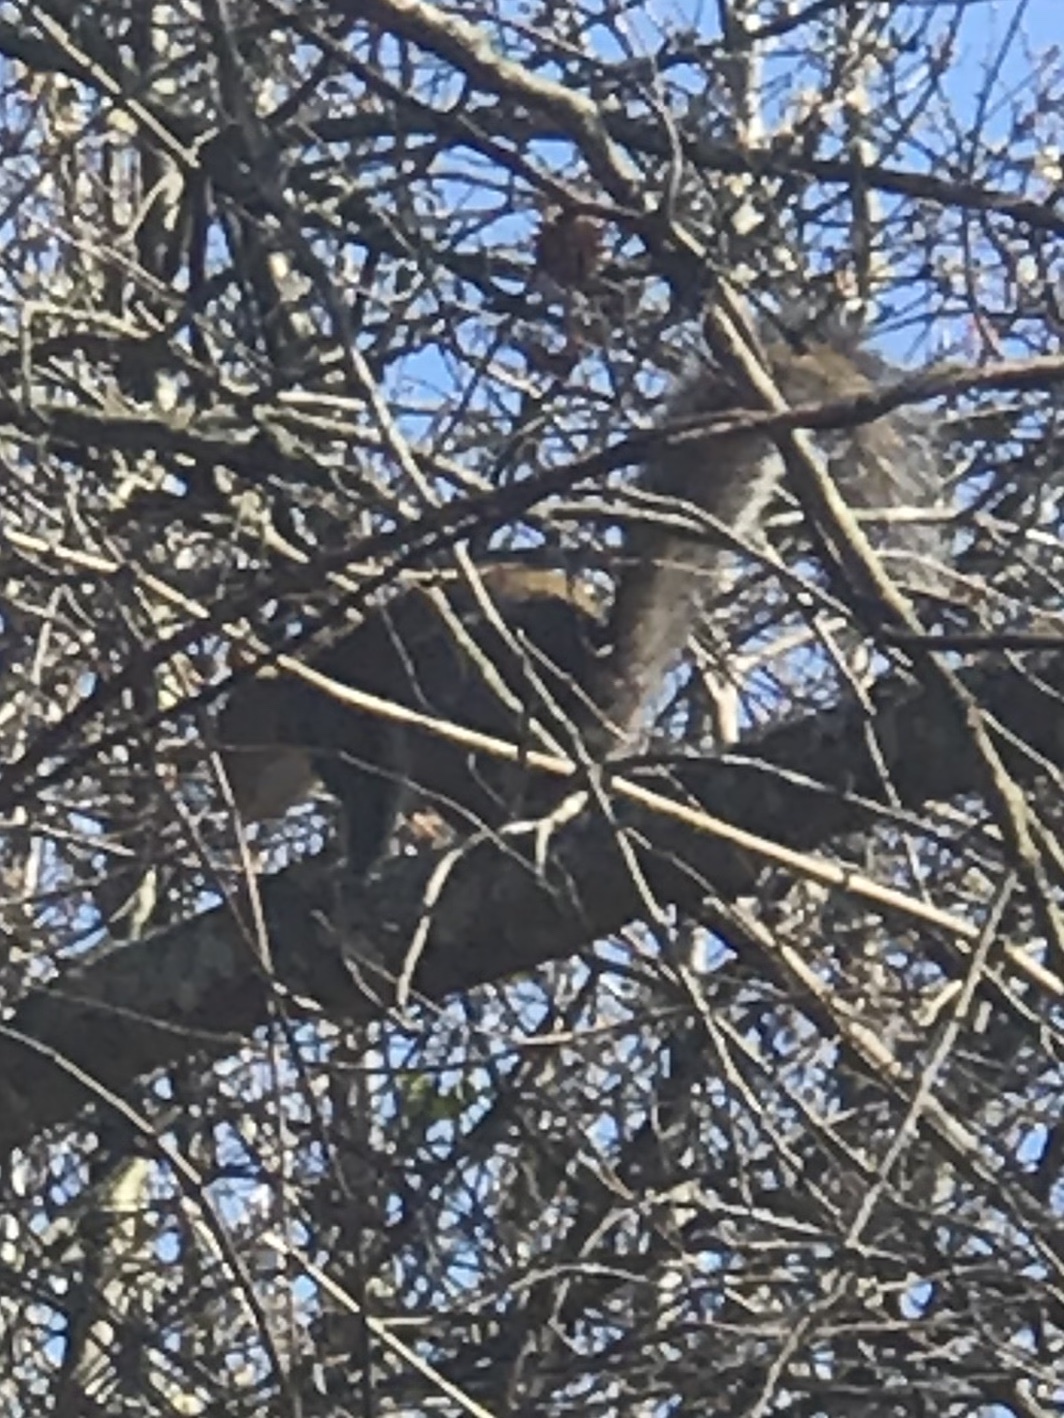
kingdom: Animalia
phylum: Chordata
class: Mammalia
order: Rodentia
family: Sciuridae
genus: Sciurus
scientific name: Sciurus carolinensis
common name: Eastern gray squirrel
